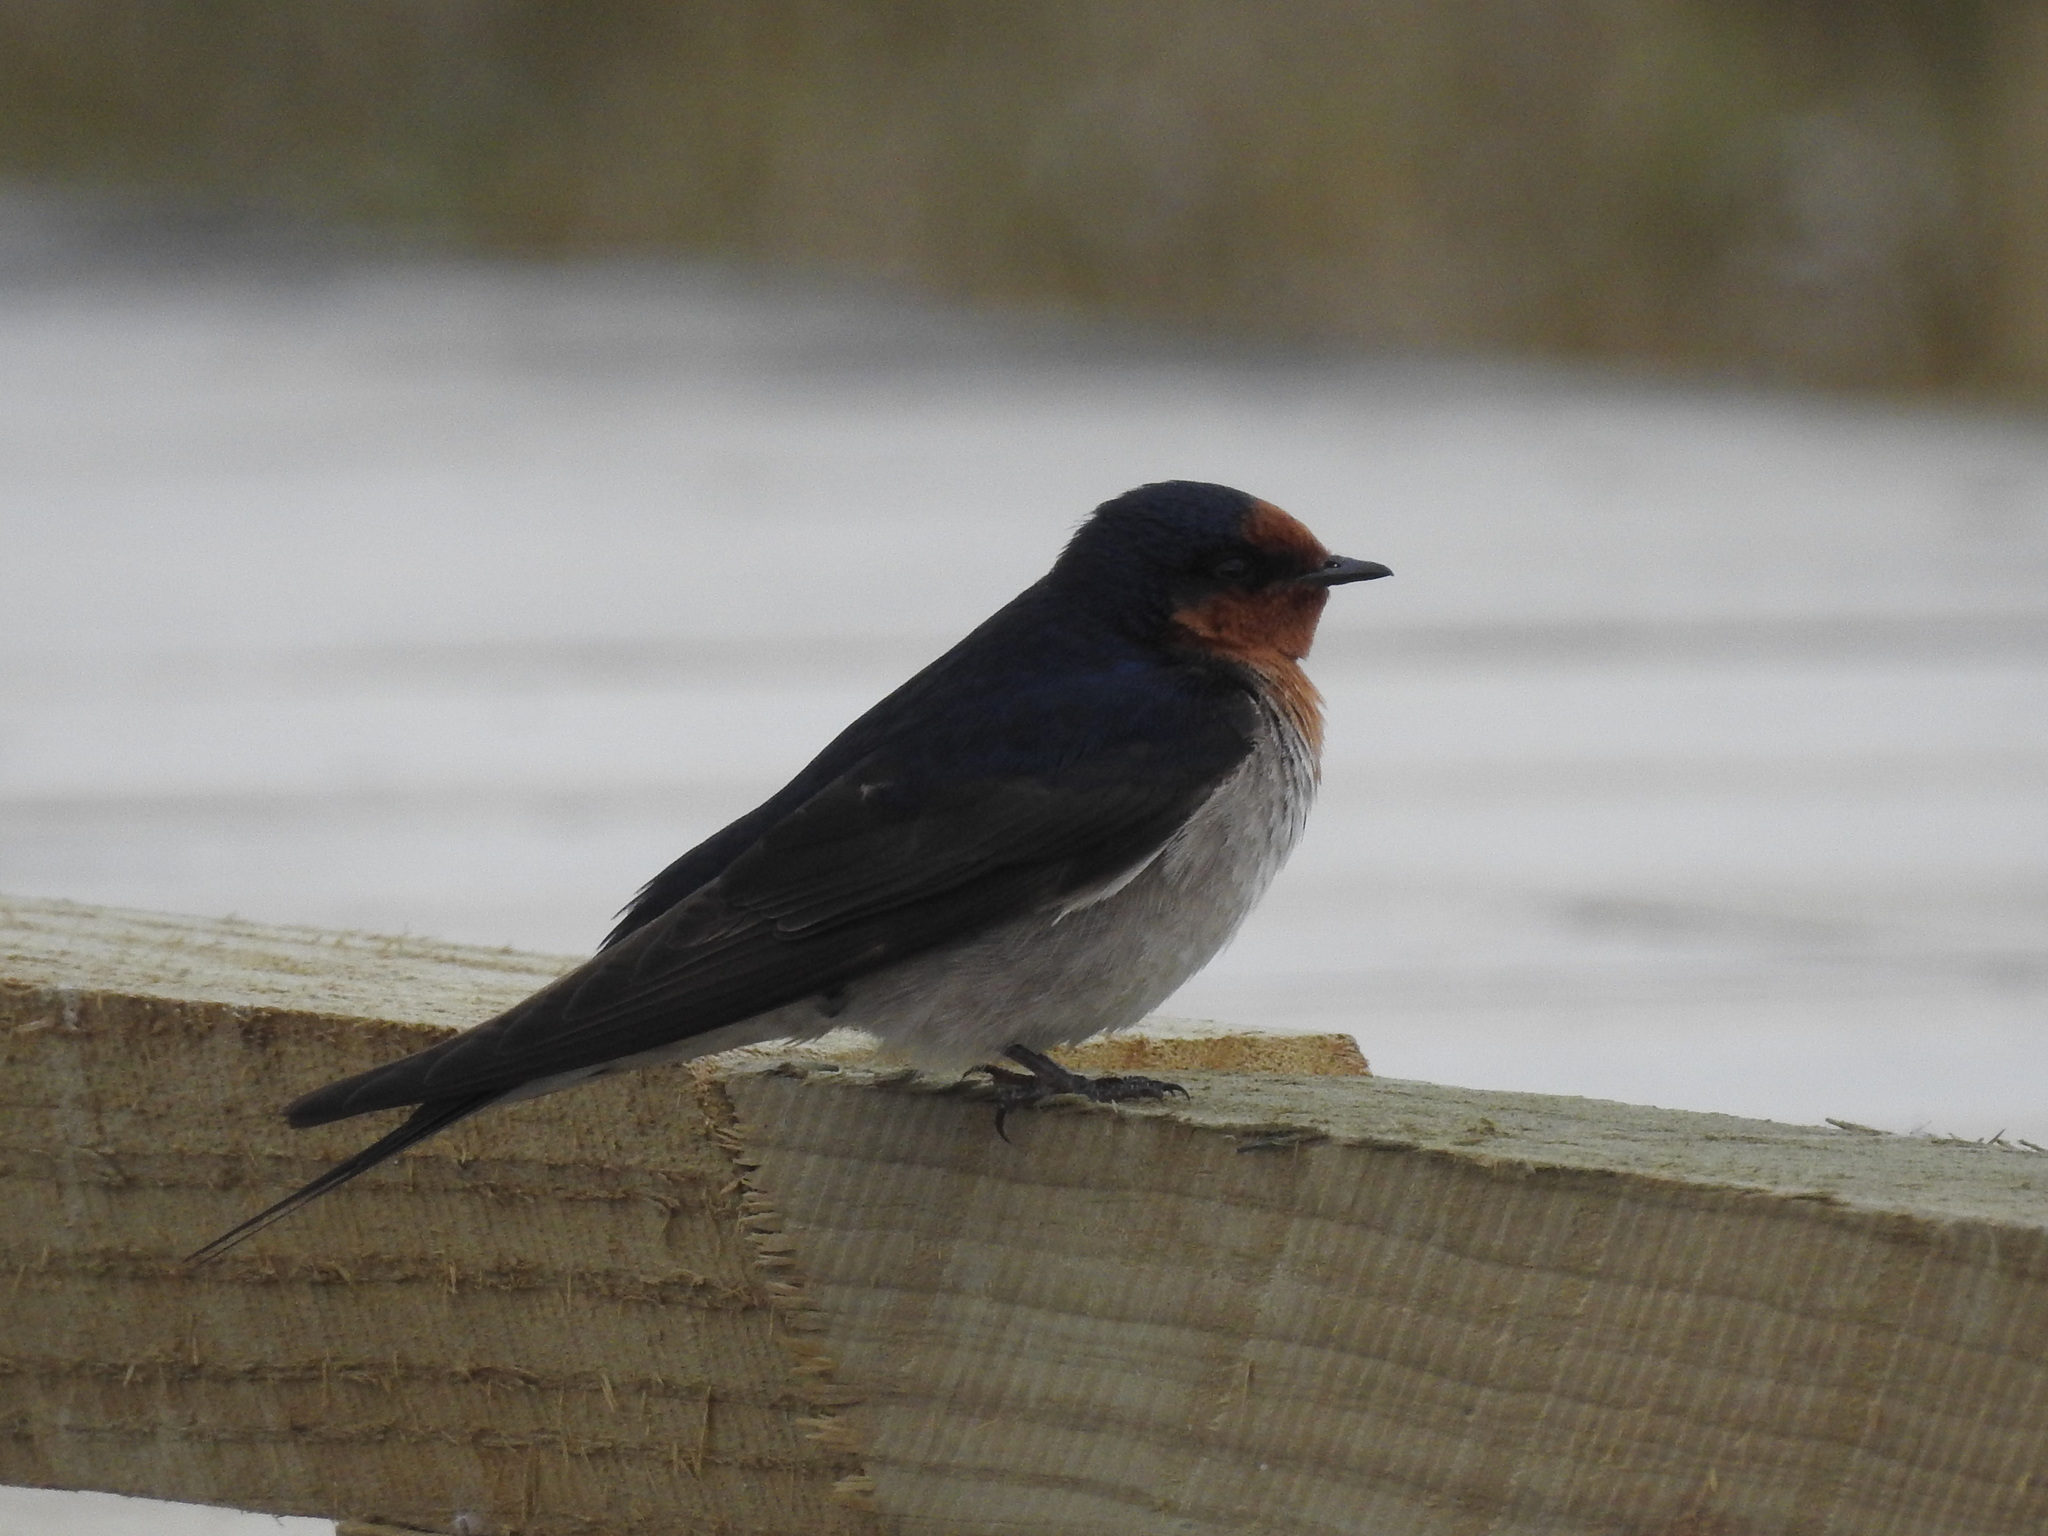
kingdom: Animalia
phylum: Chordata
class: Aves
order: Passeriformes
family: Hirundinidae
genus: Hirundo
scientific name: Hirundo neoxena
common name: Welcome swallow
